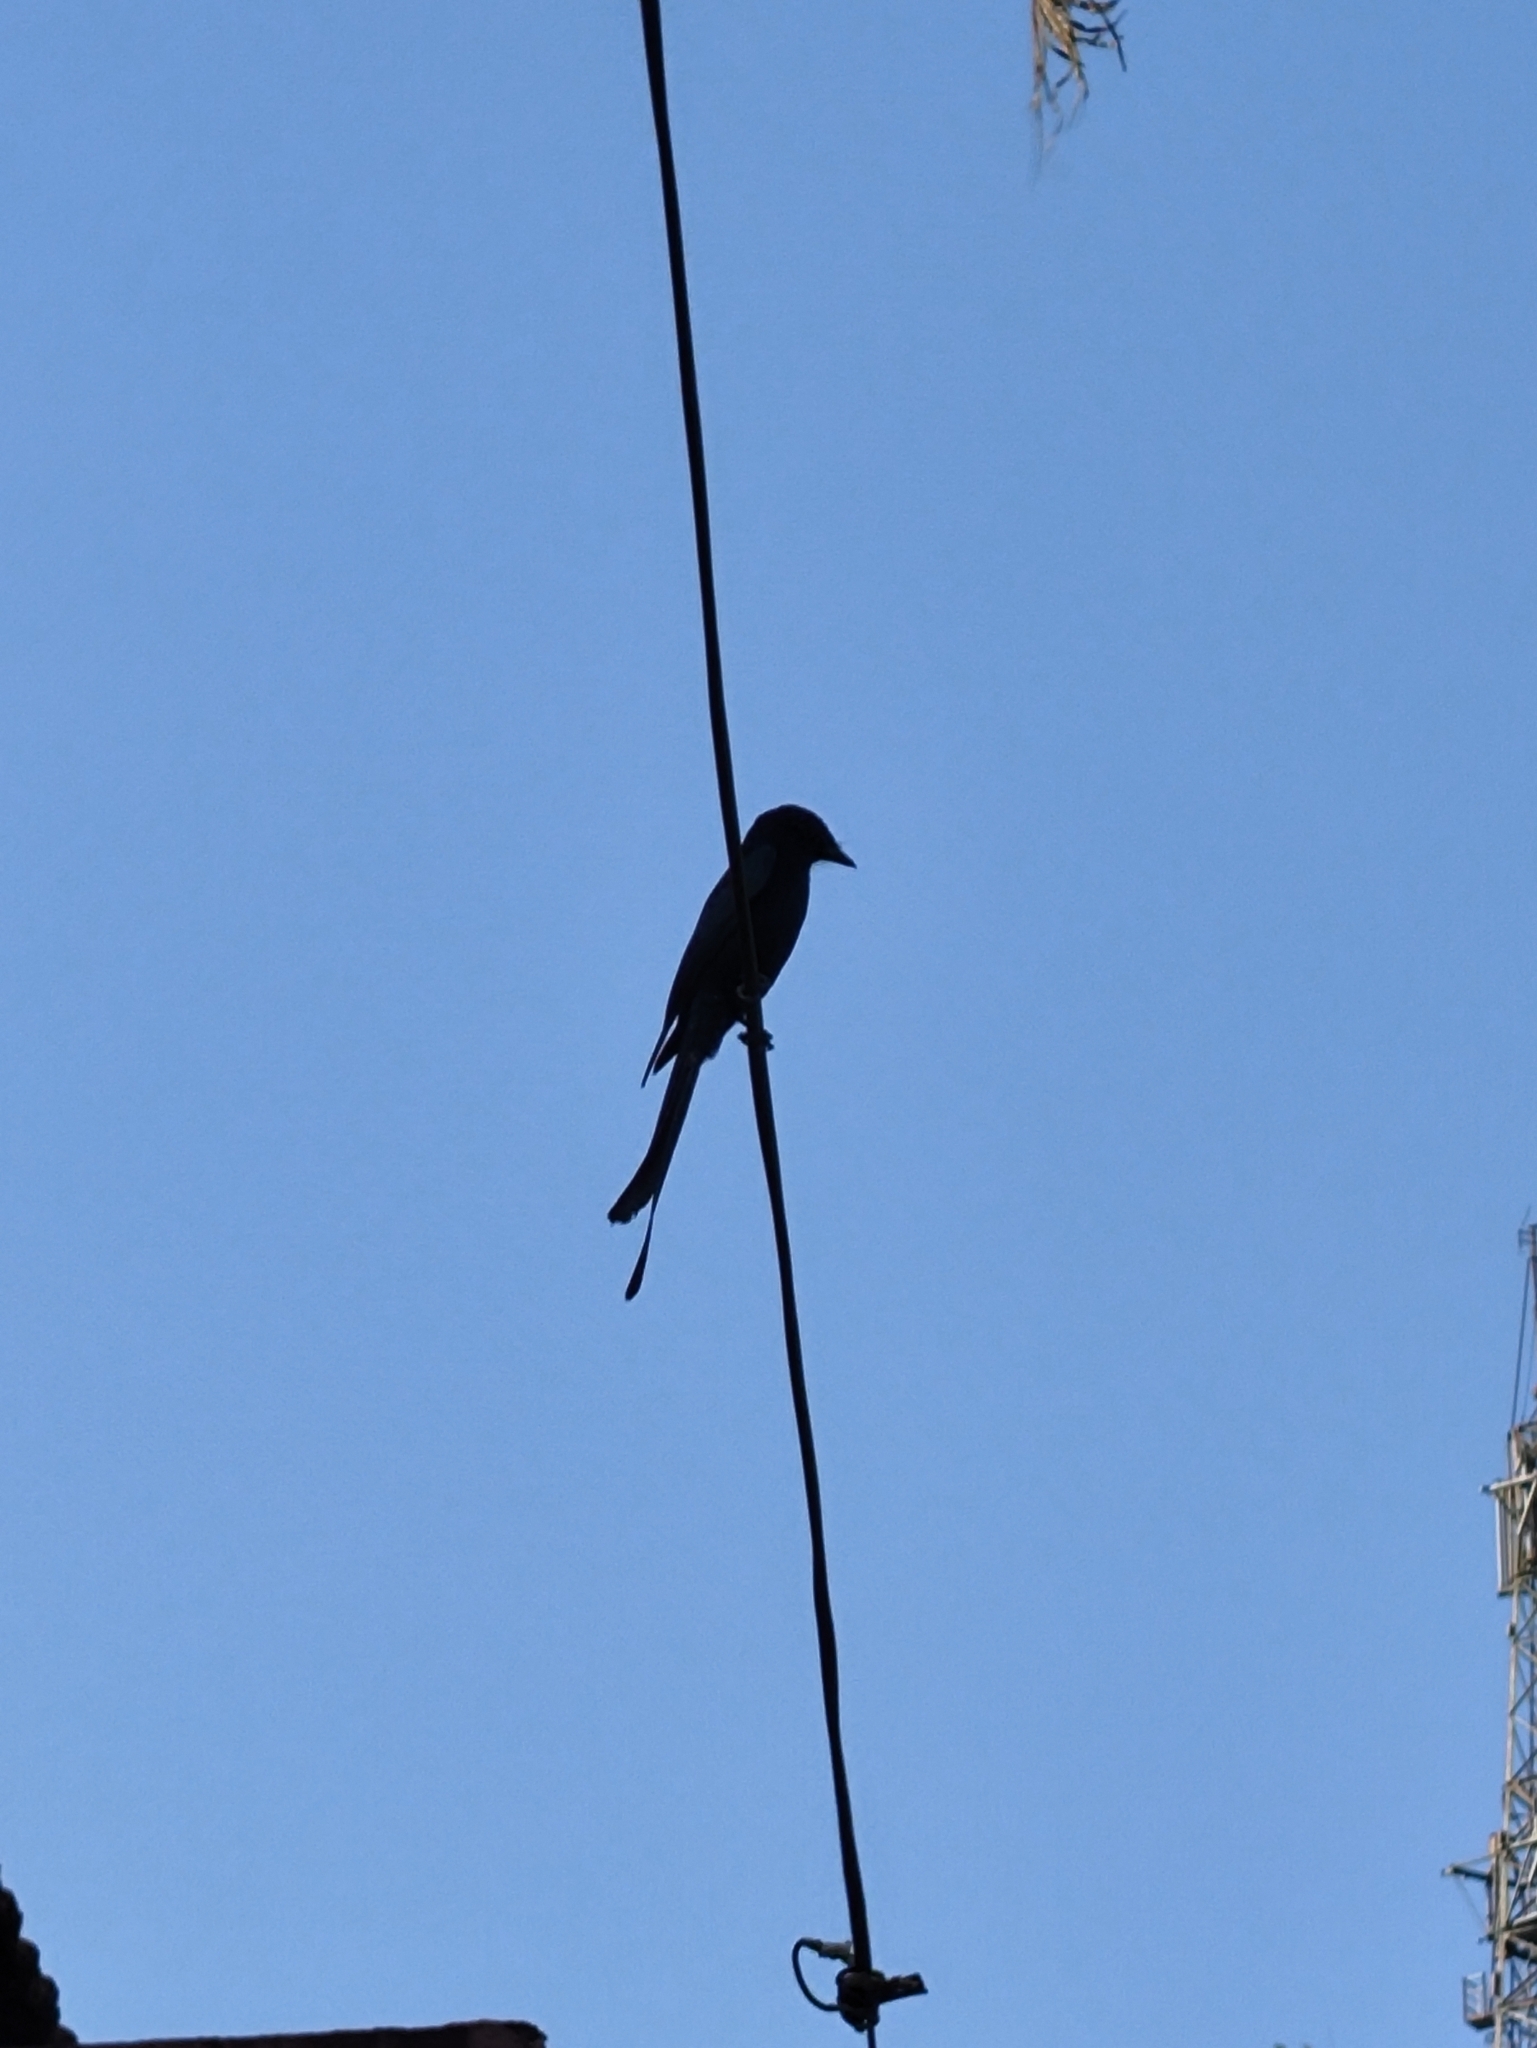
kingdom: Animalia
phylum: Chordata
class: Aves
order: Passeriformes
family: Dicruridae
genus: Dicrurus
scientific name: Dicrurus macrocercus
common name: Black drongo
